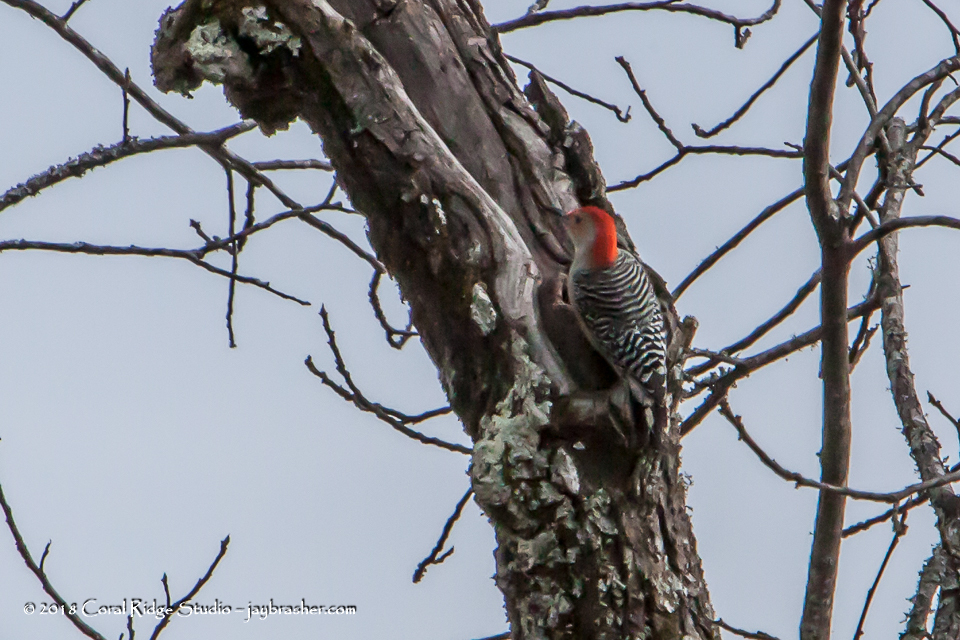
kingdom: Animalia
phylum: Chordata
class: Aves
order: Piciformes
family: Picidae
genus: Melanerpes
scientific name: Melanerpes carolinus
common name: Red-bellied woodpecker
